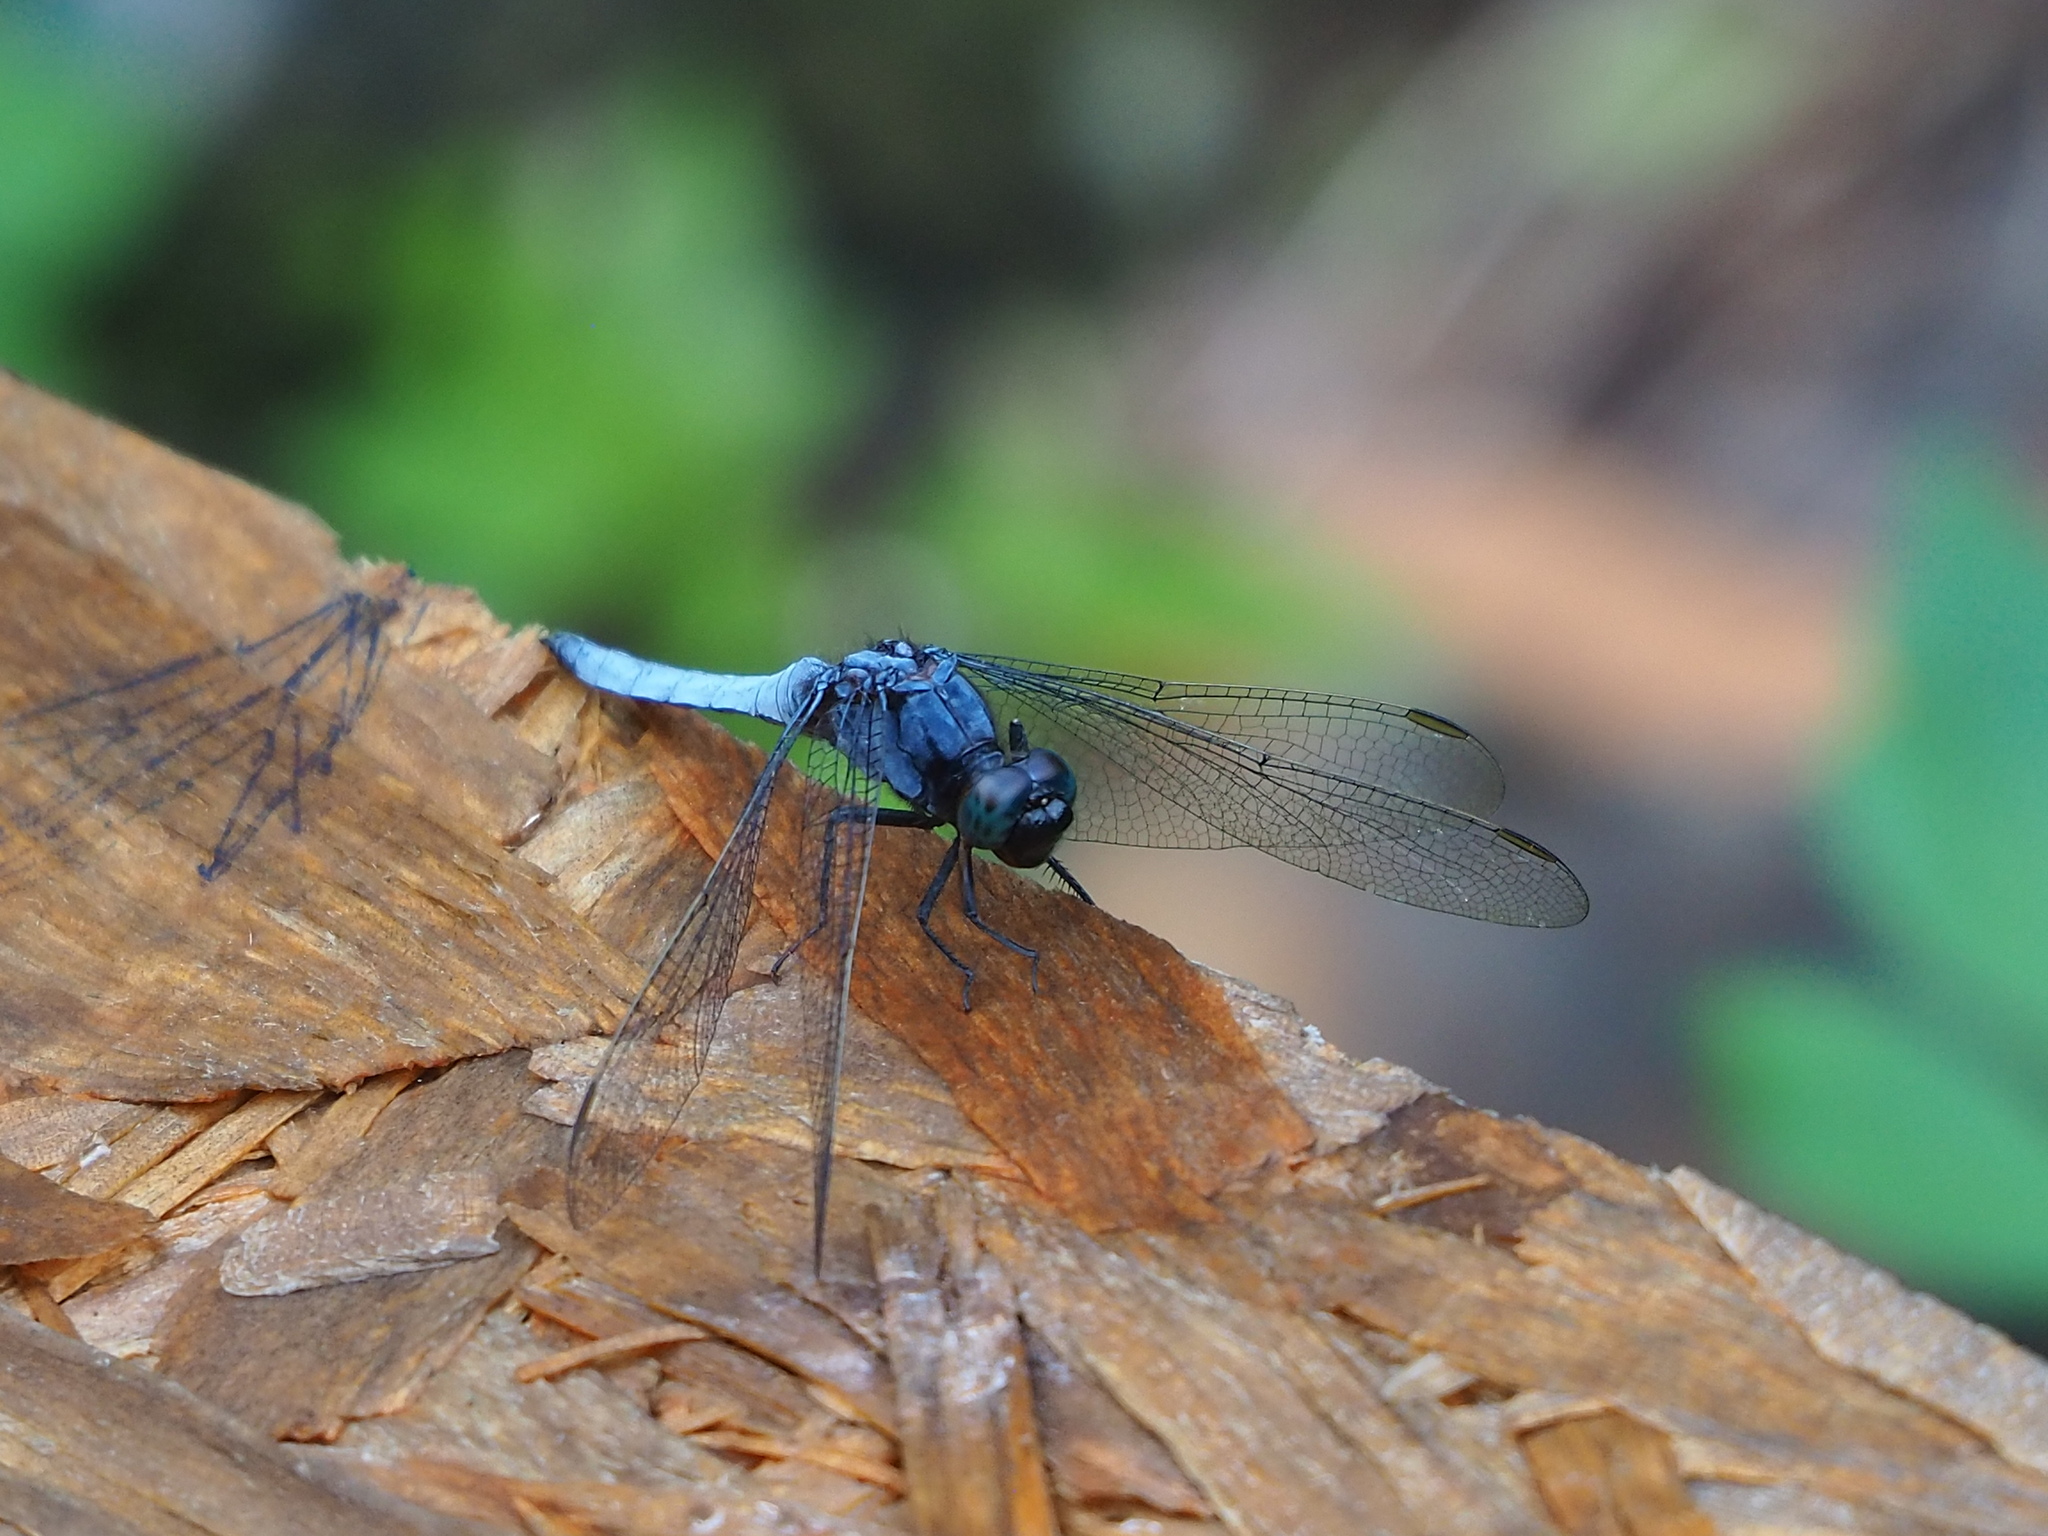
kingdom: Animalia
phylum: Arthropoda
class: Insecta
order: Odonata
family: Libellulidae
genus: Orthetrum
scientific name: Orthetrum glaucum
